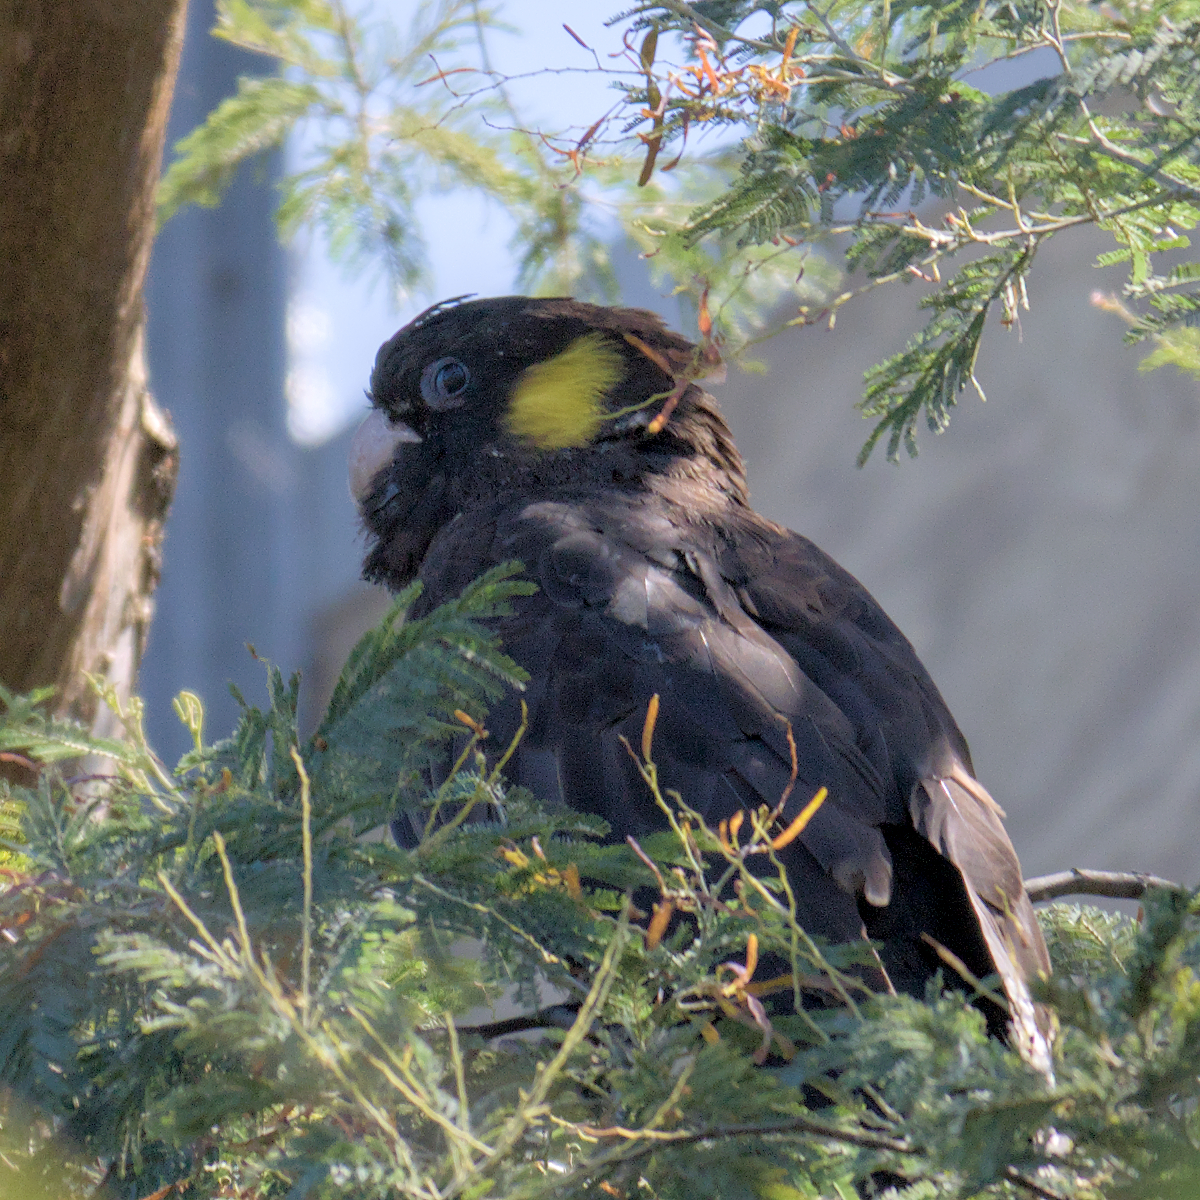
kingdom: Animalia
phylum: Chordata
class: Aves
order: Psittaciformes
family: Cacatuidae
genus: Zanda
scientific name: Zanda funerea
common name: Yellow-tailed black-cockatoo
